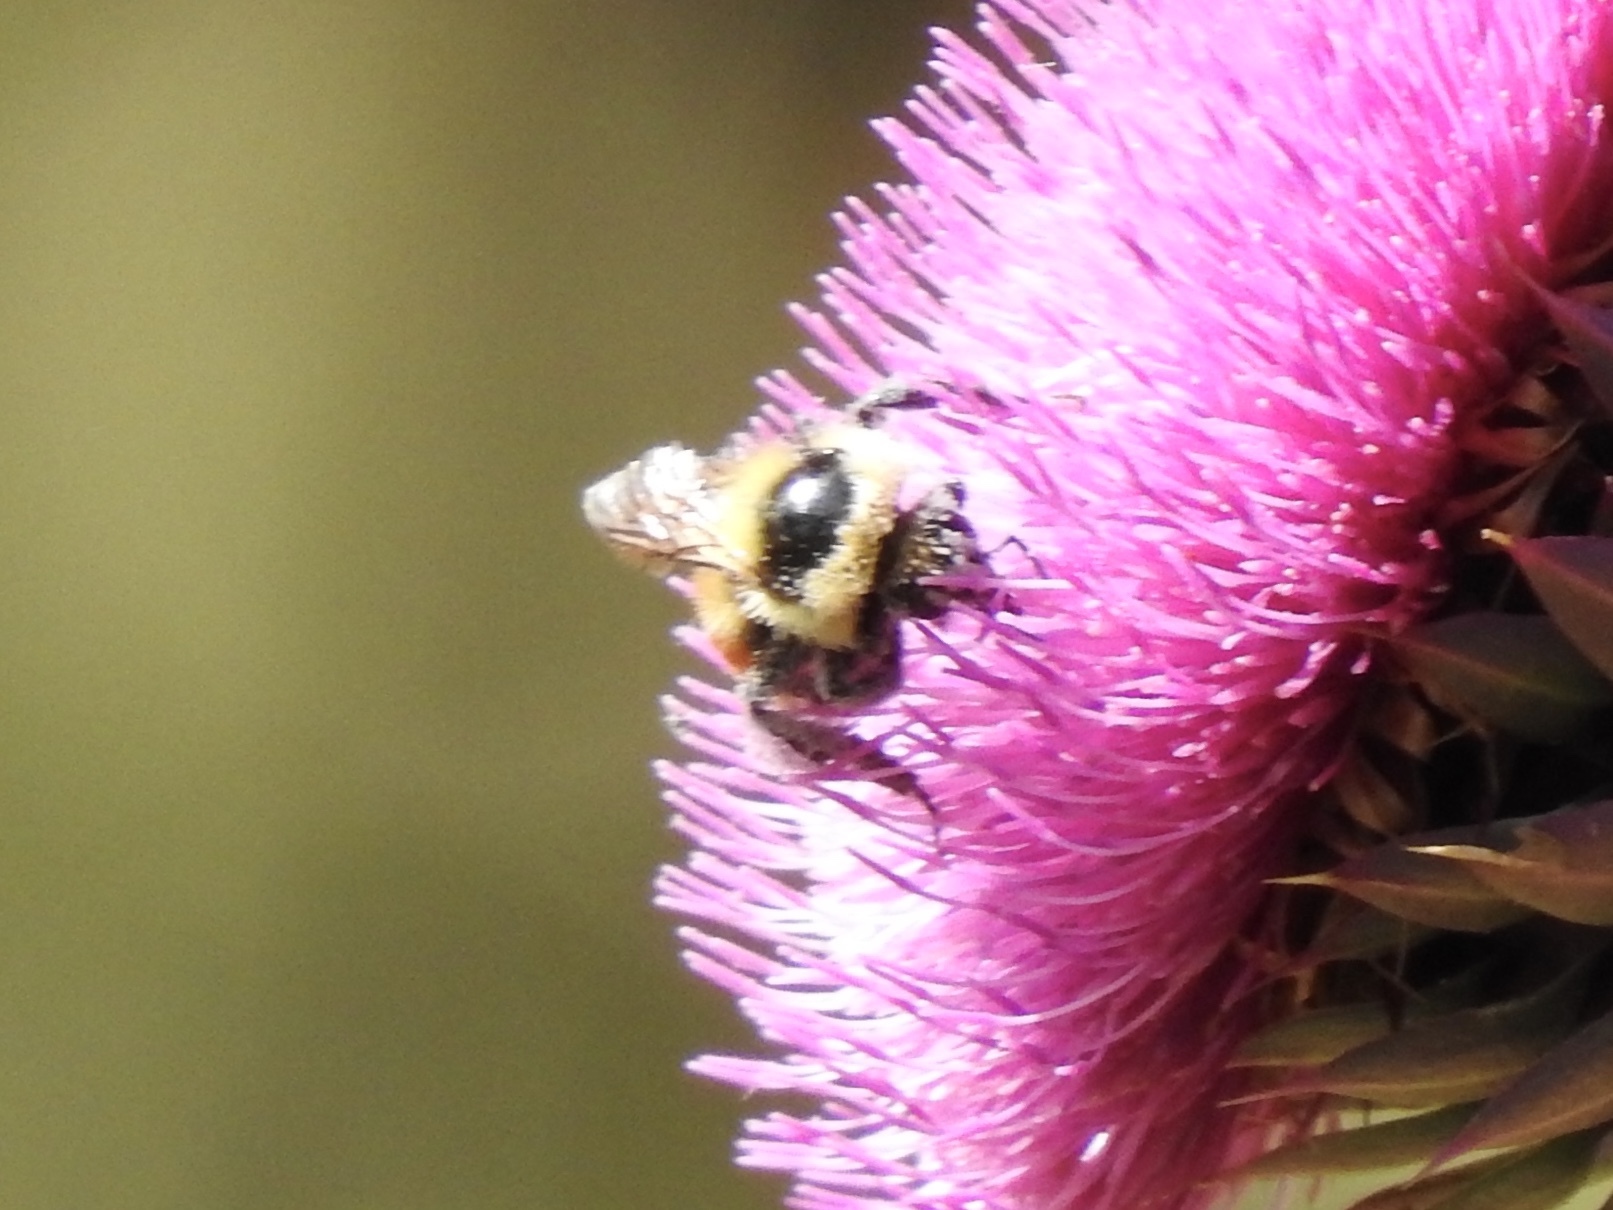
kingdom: Animalia
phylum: Arthropoda
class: Insecta
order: Hymenoptera
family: Apidae
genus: Bombus
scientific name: Bombus huntii
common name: Hunt bumble bee
